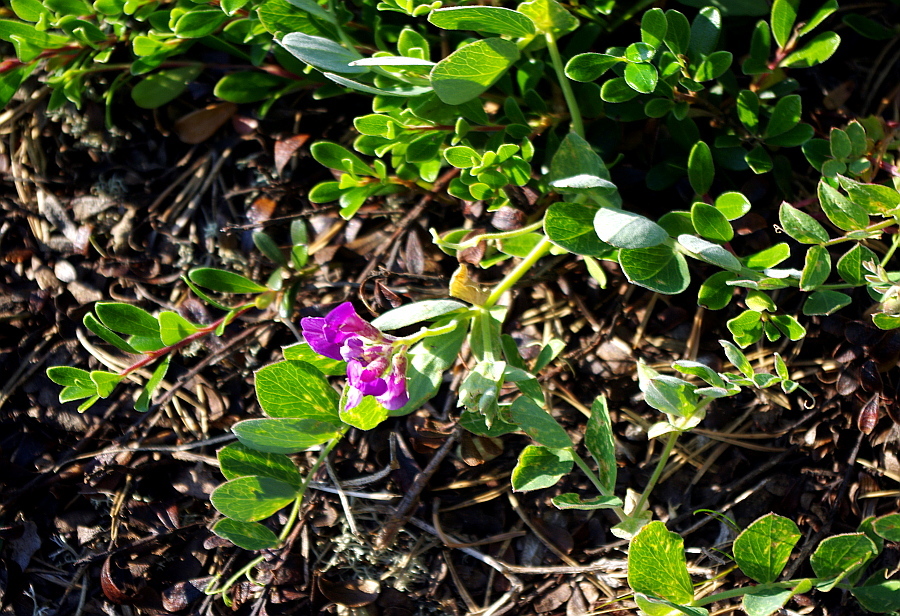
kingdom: Plantae
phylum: Tracheophyta
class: Magnoliopsida
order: Fabales
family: Fabaceae
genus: Lathyrus
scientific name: Lathyrus japonicus
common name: Sea pea
